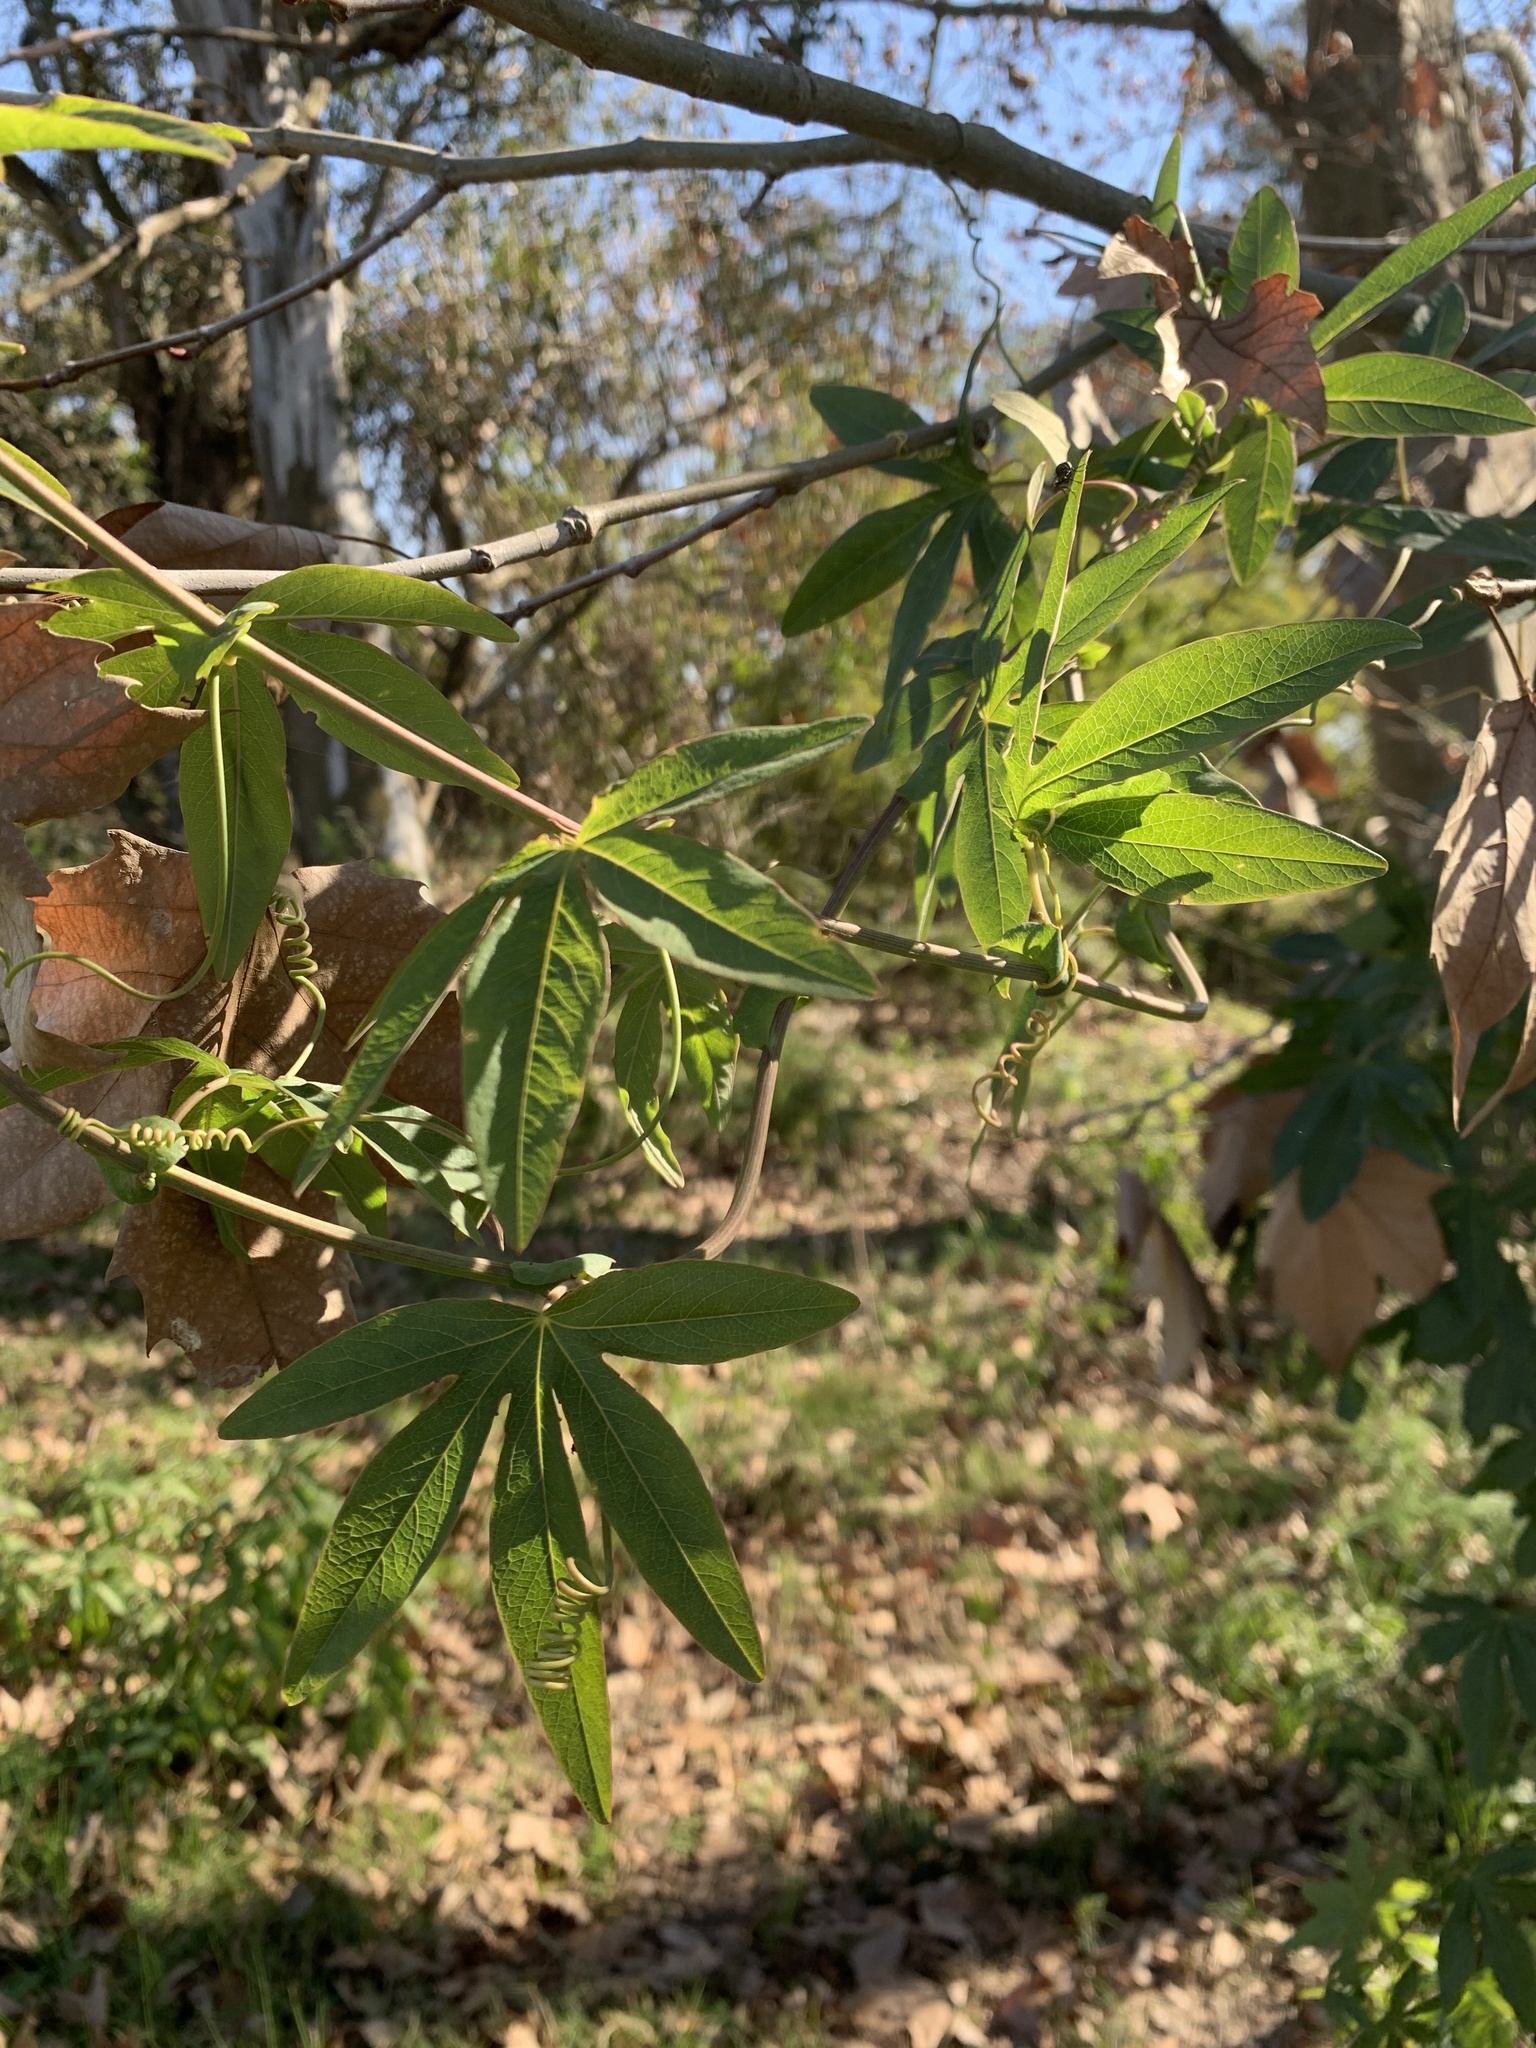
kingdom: Plantae
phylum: Tracheophyta
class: Magnoliopsida
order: Malpighiales
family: Passifloraceae
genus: Passiflora
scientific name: Passiflora caerulea
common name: Blue passionflower
